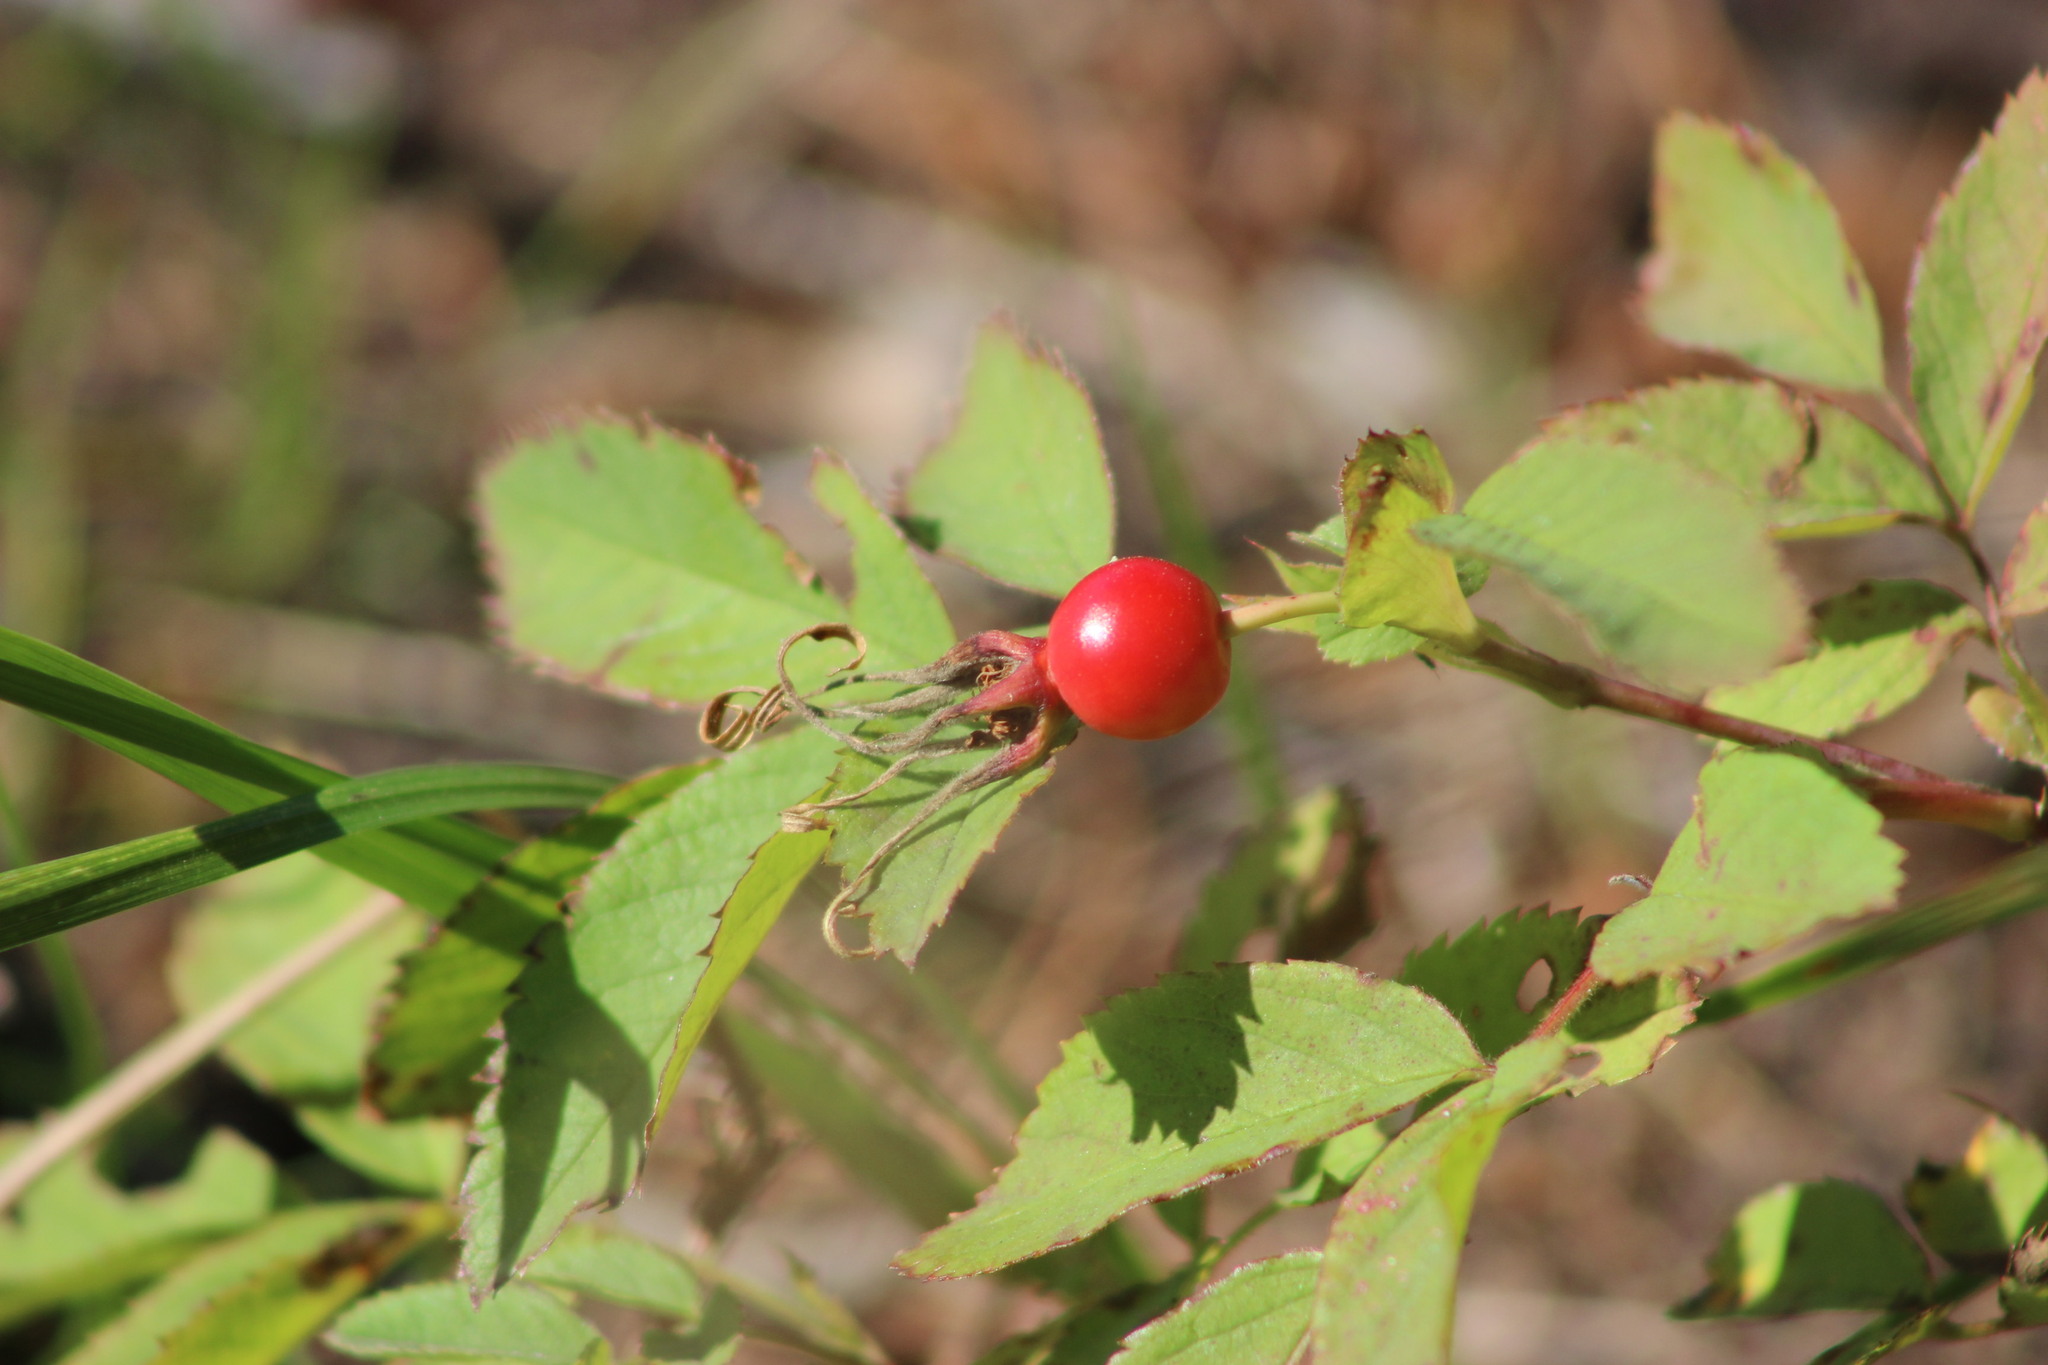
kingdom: Plantae
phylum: Tracheophyta
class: Magnoliopsida
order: Rosales
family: Rosaceae
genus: Rosa
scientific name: Rosa majalis
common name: Cinnamon rose
